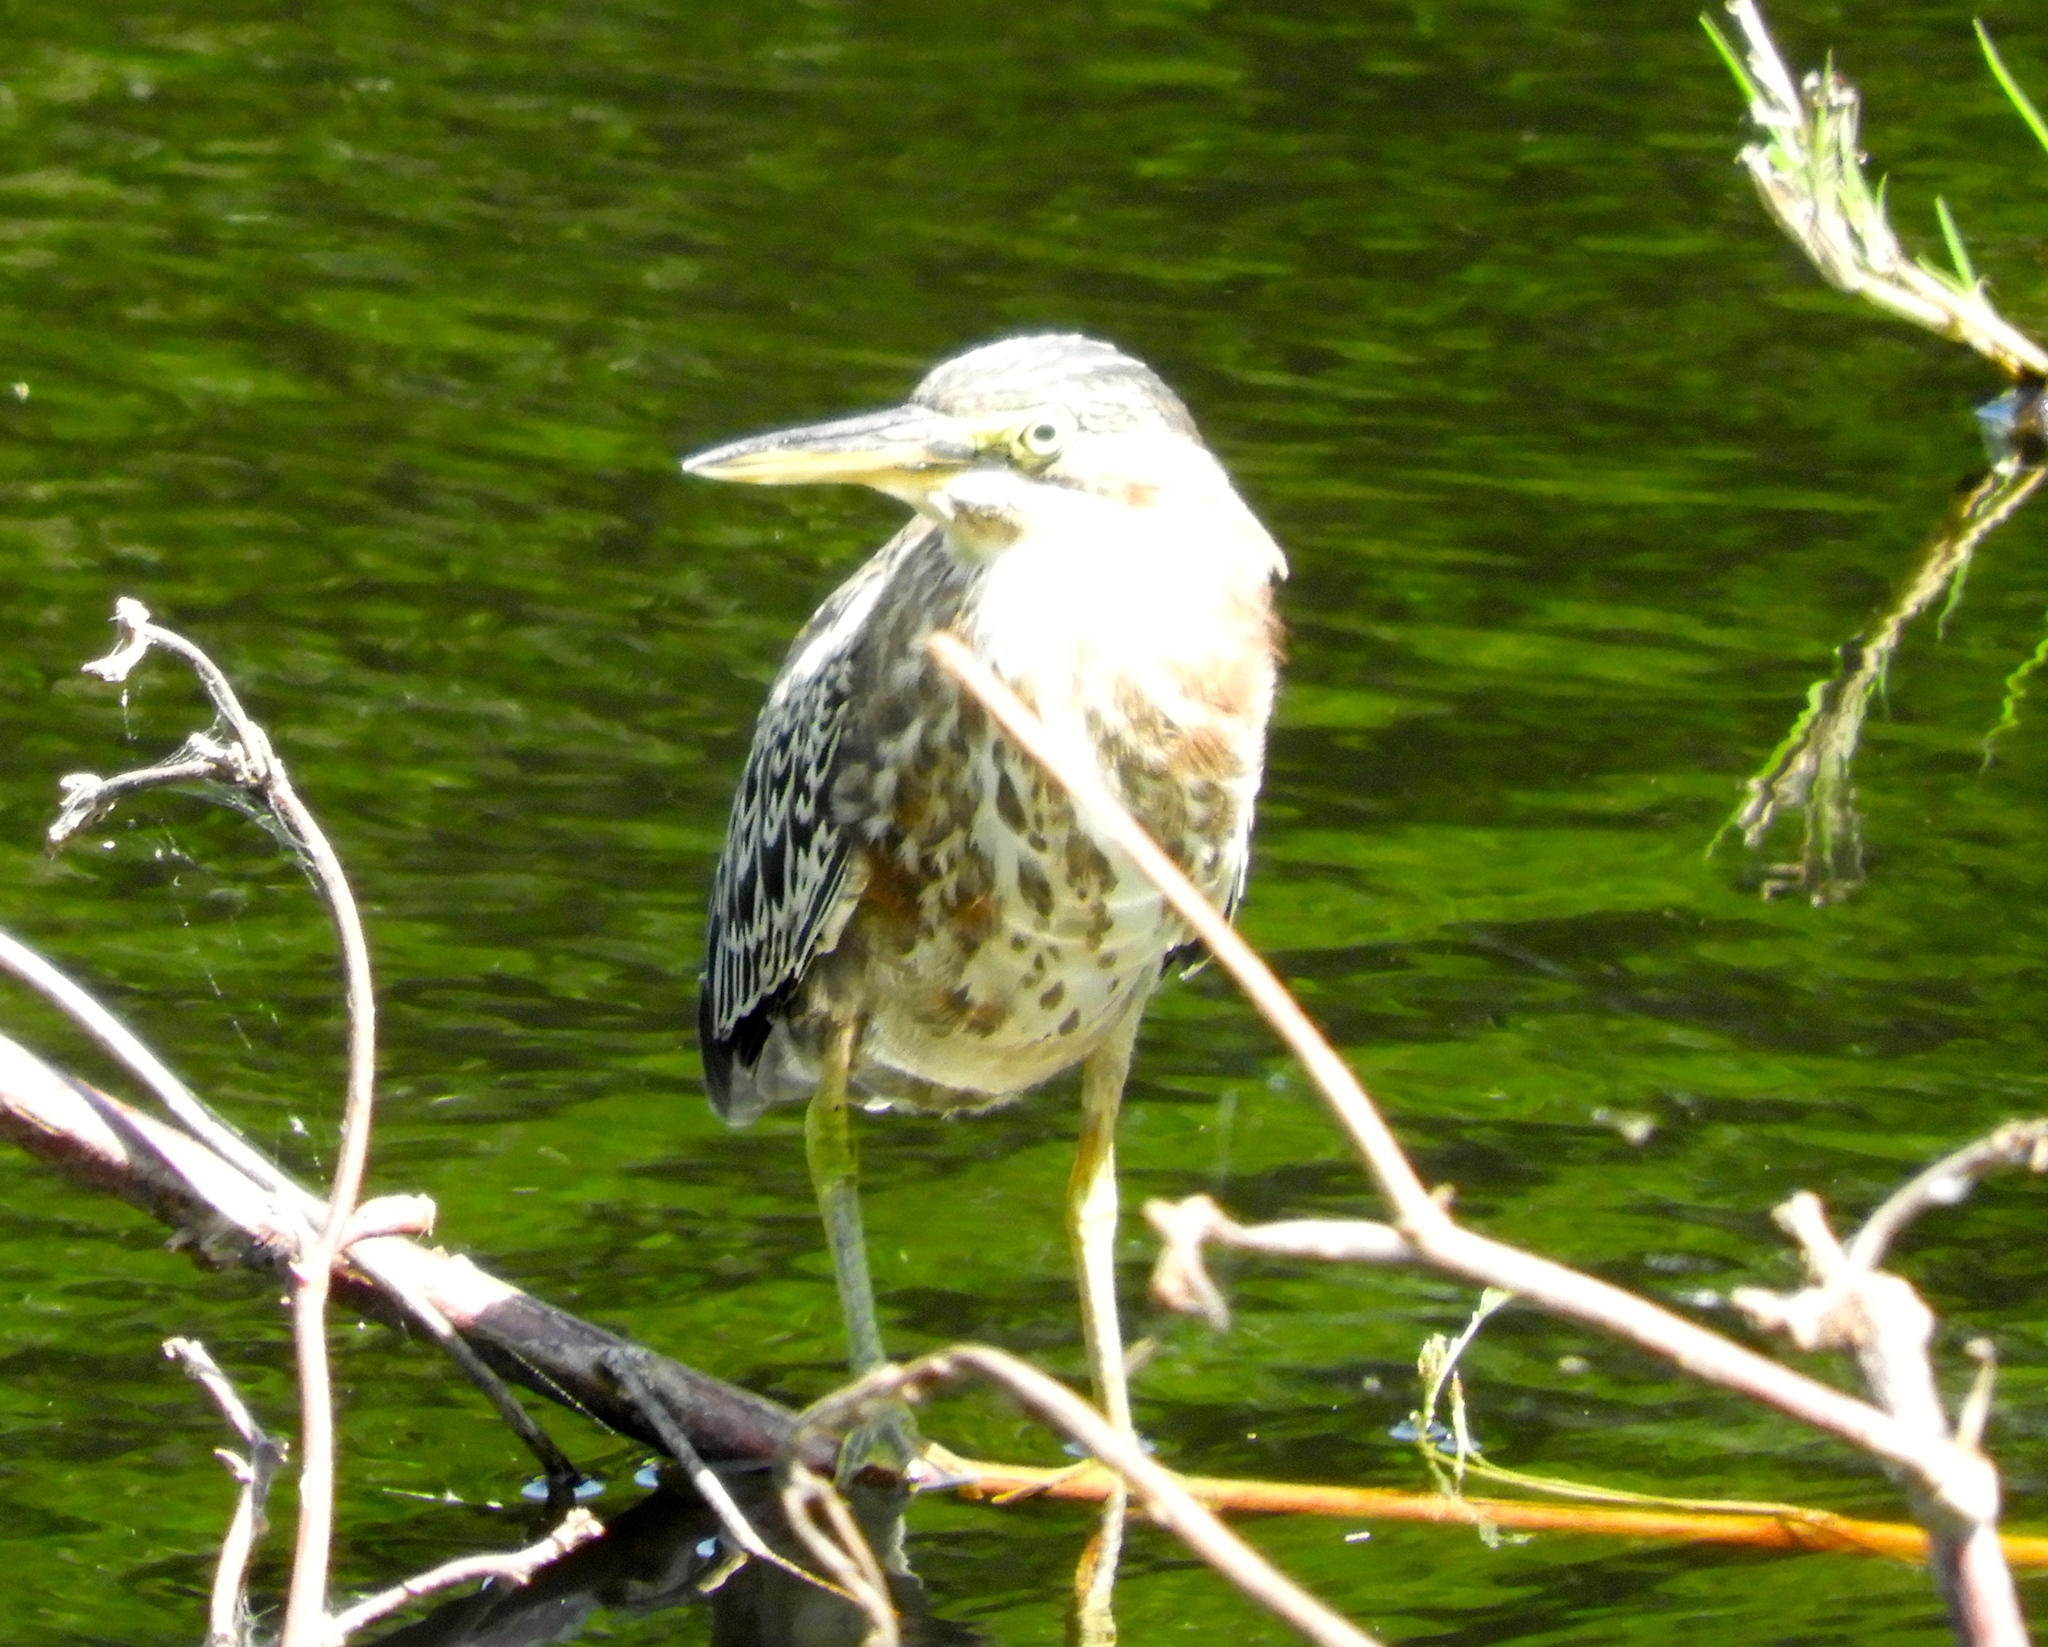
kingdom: Animalia
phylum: Chordata
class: Aves
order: Pelecaniformes
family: Ardeidae
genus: Butorides
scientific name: Butorides virescens
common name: Green heron
